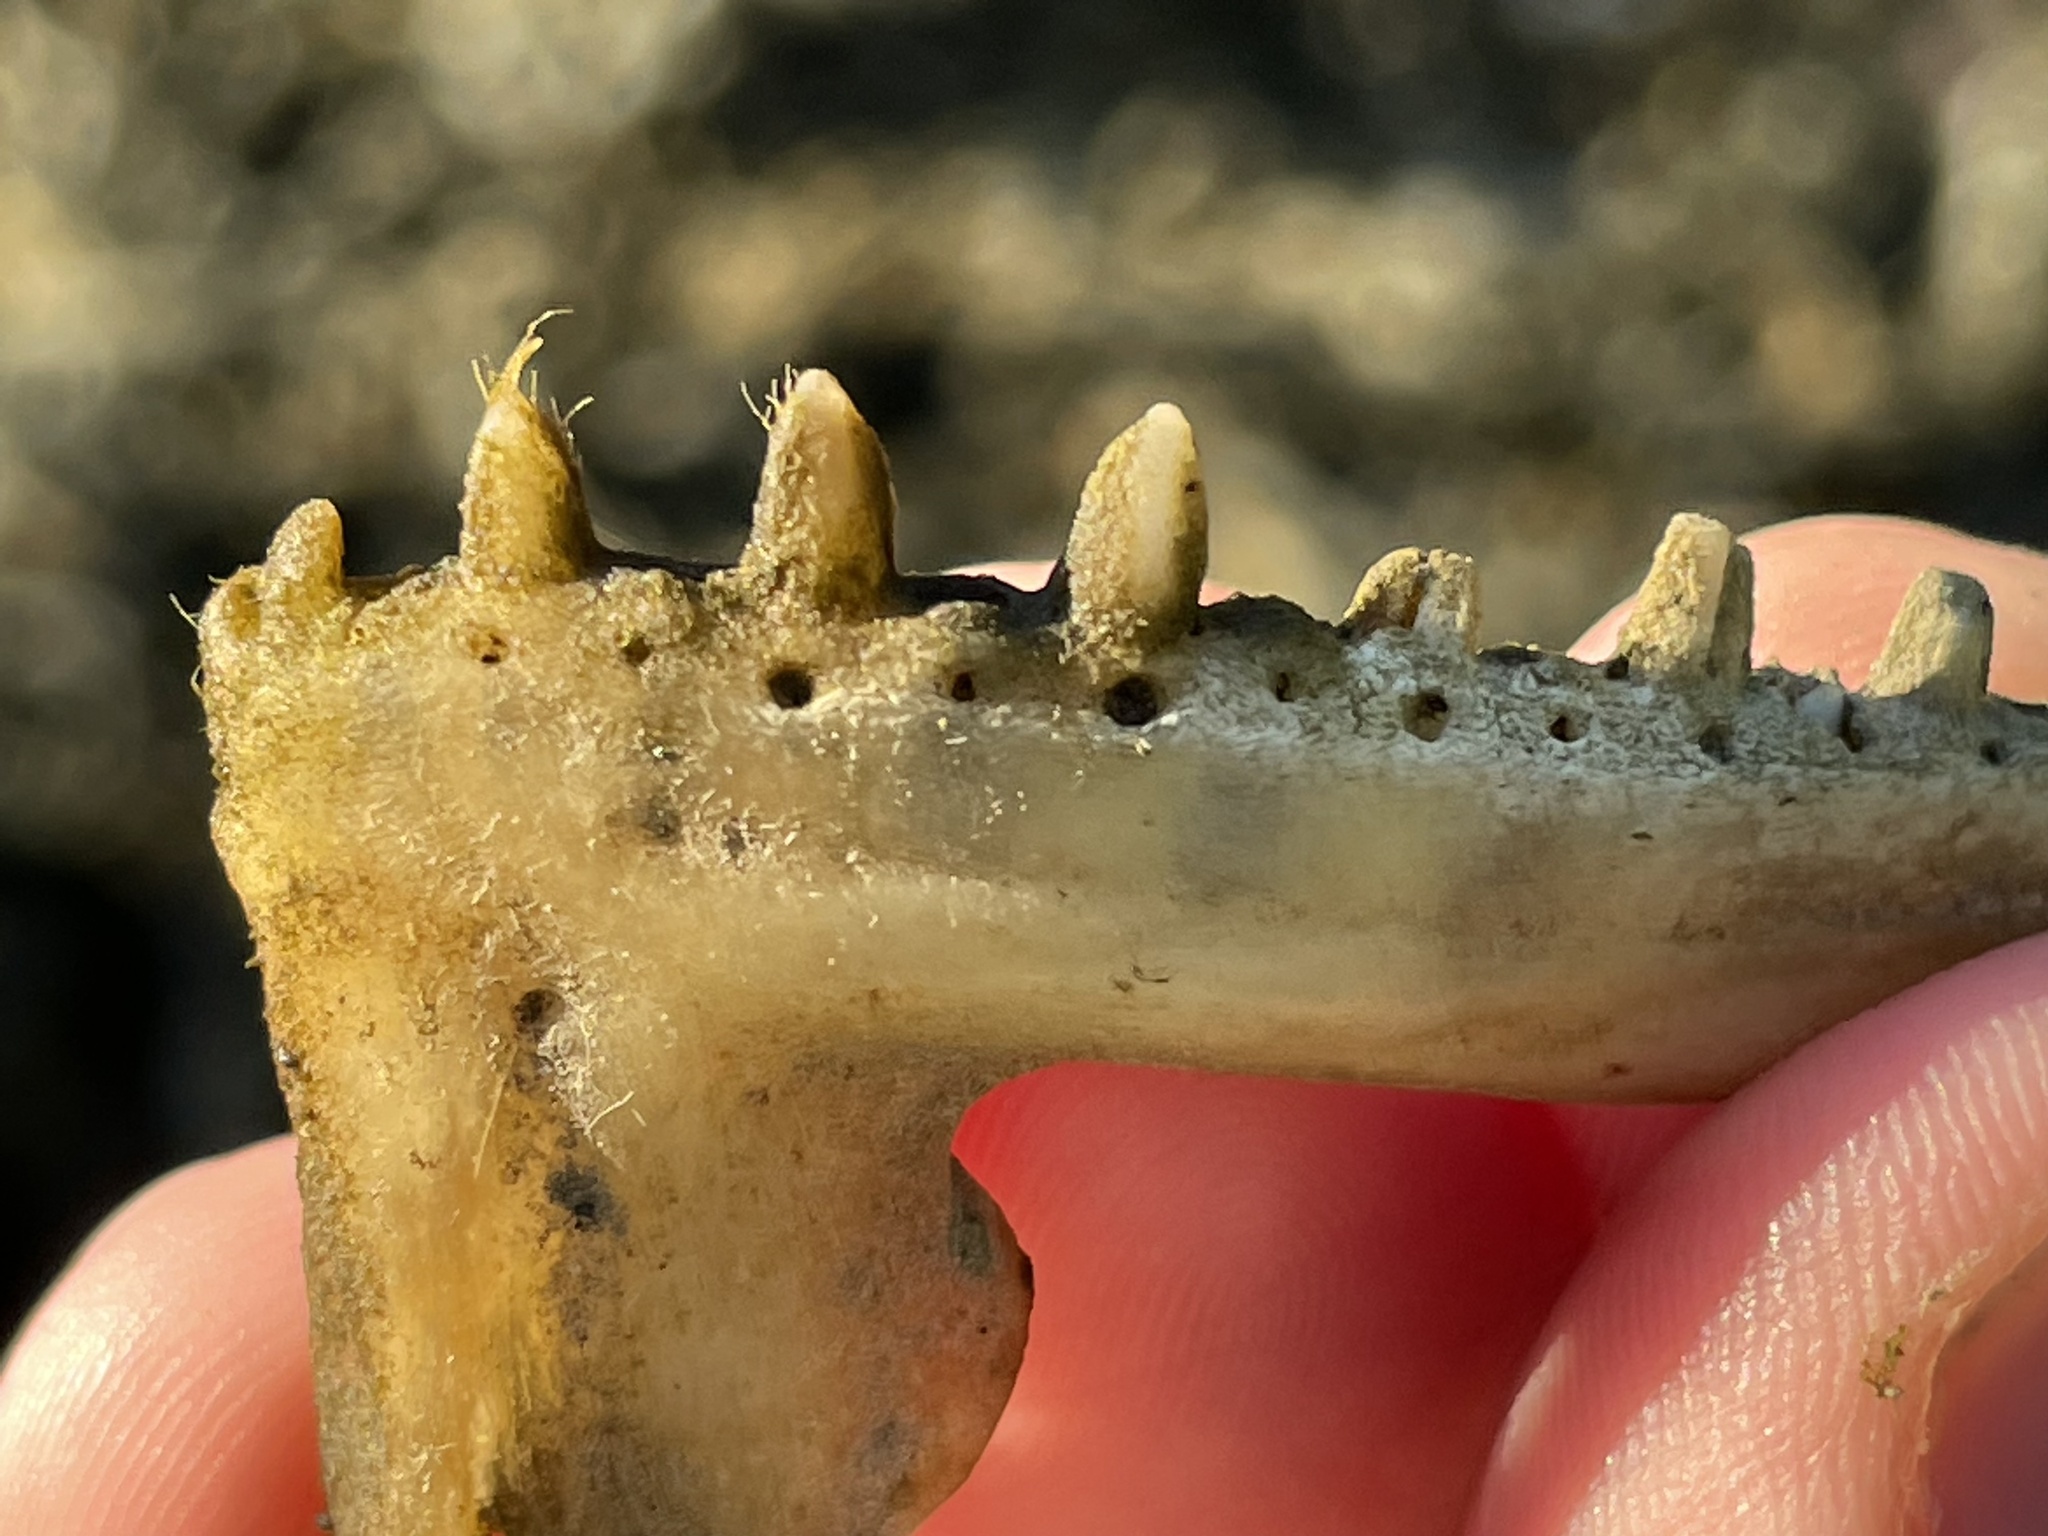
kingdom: Animalia
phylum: Chordata
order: Perciformes
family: Pomatomidae
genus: Pomatomus
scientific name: Pomatomus saltatrix
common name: Bluefish
